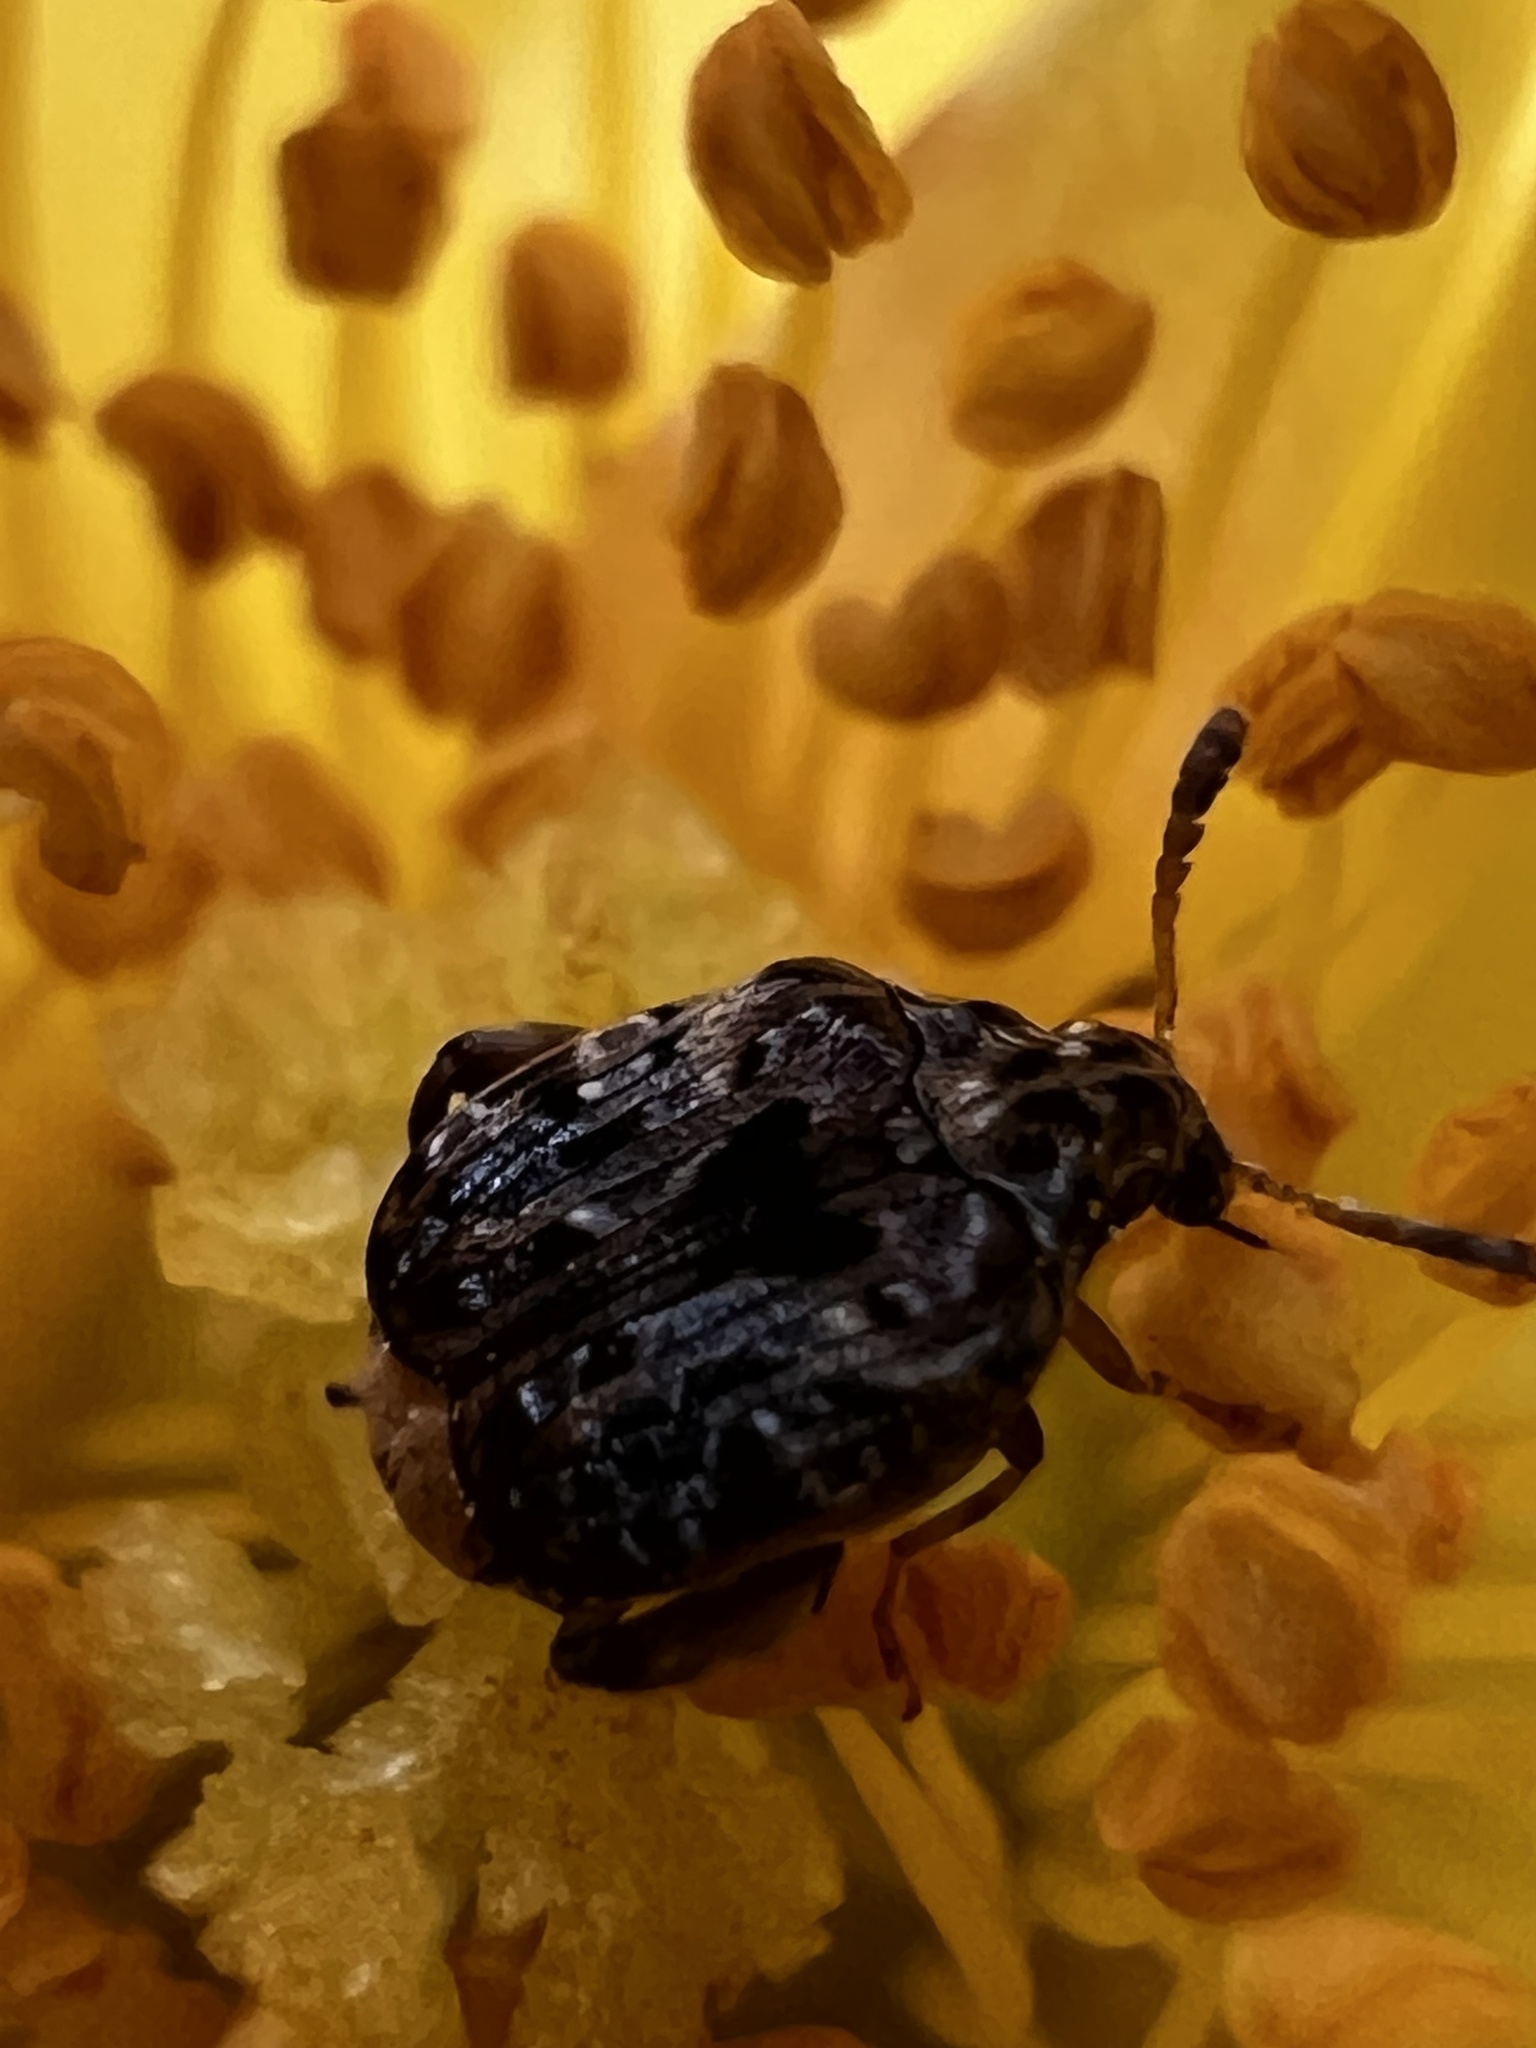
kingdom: Animalia
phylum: Arthropoda
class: Insecta
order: Coleoptera
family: Chrysomelidae
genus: Gibbobruchus
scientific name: Gibbobruchus mimus
